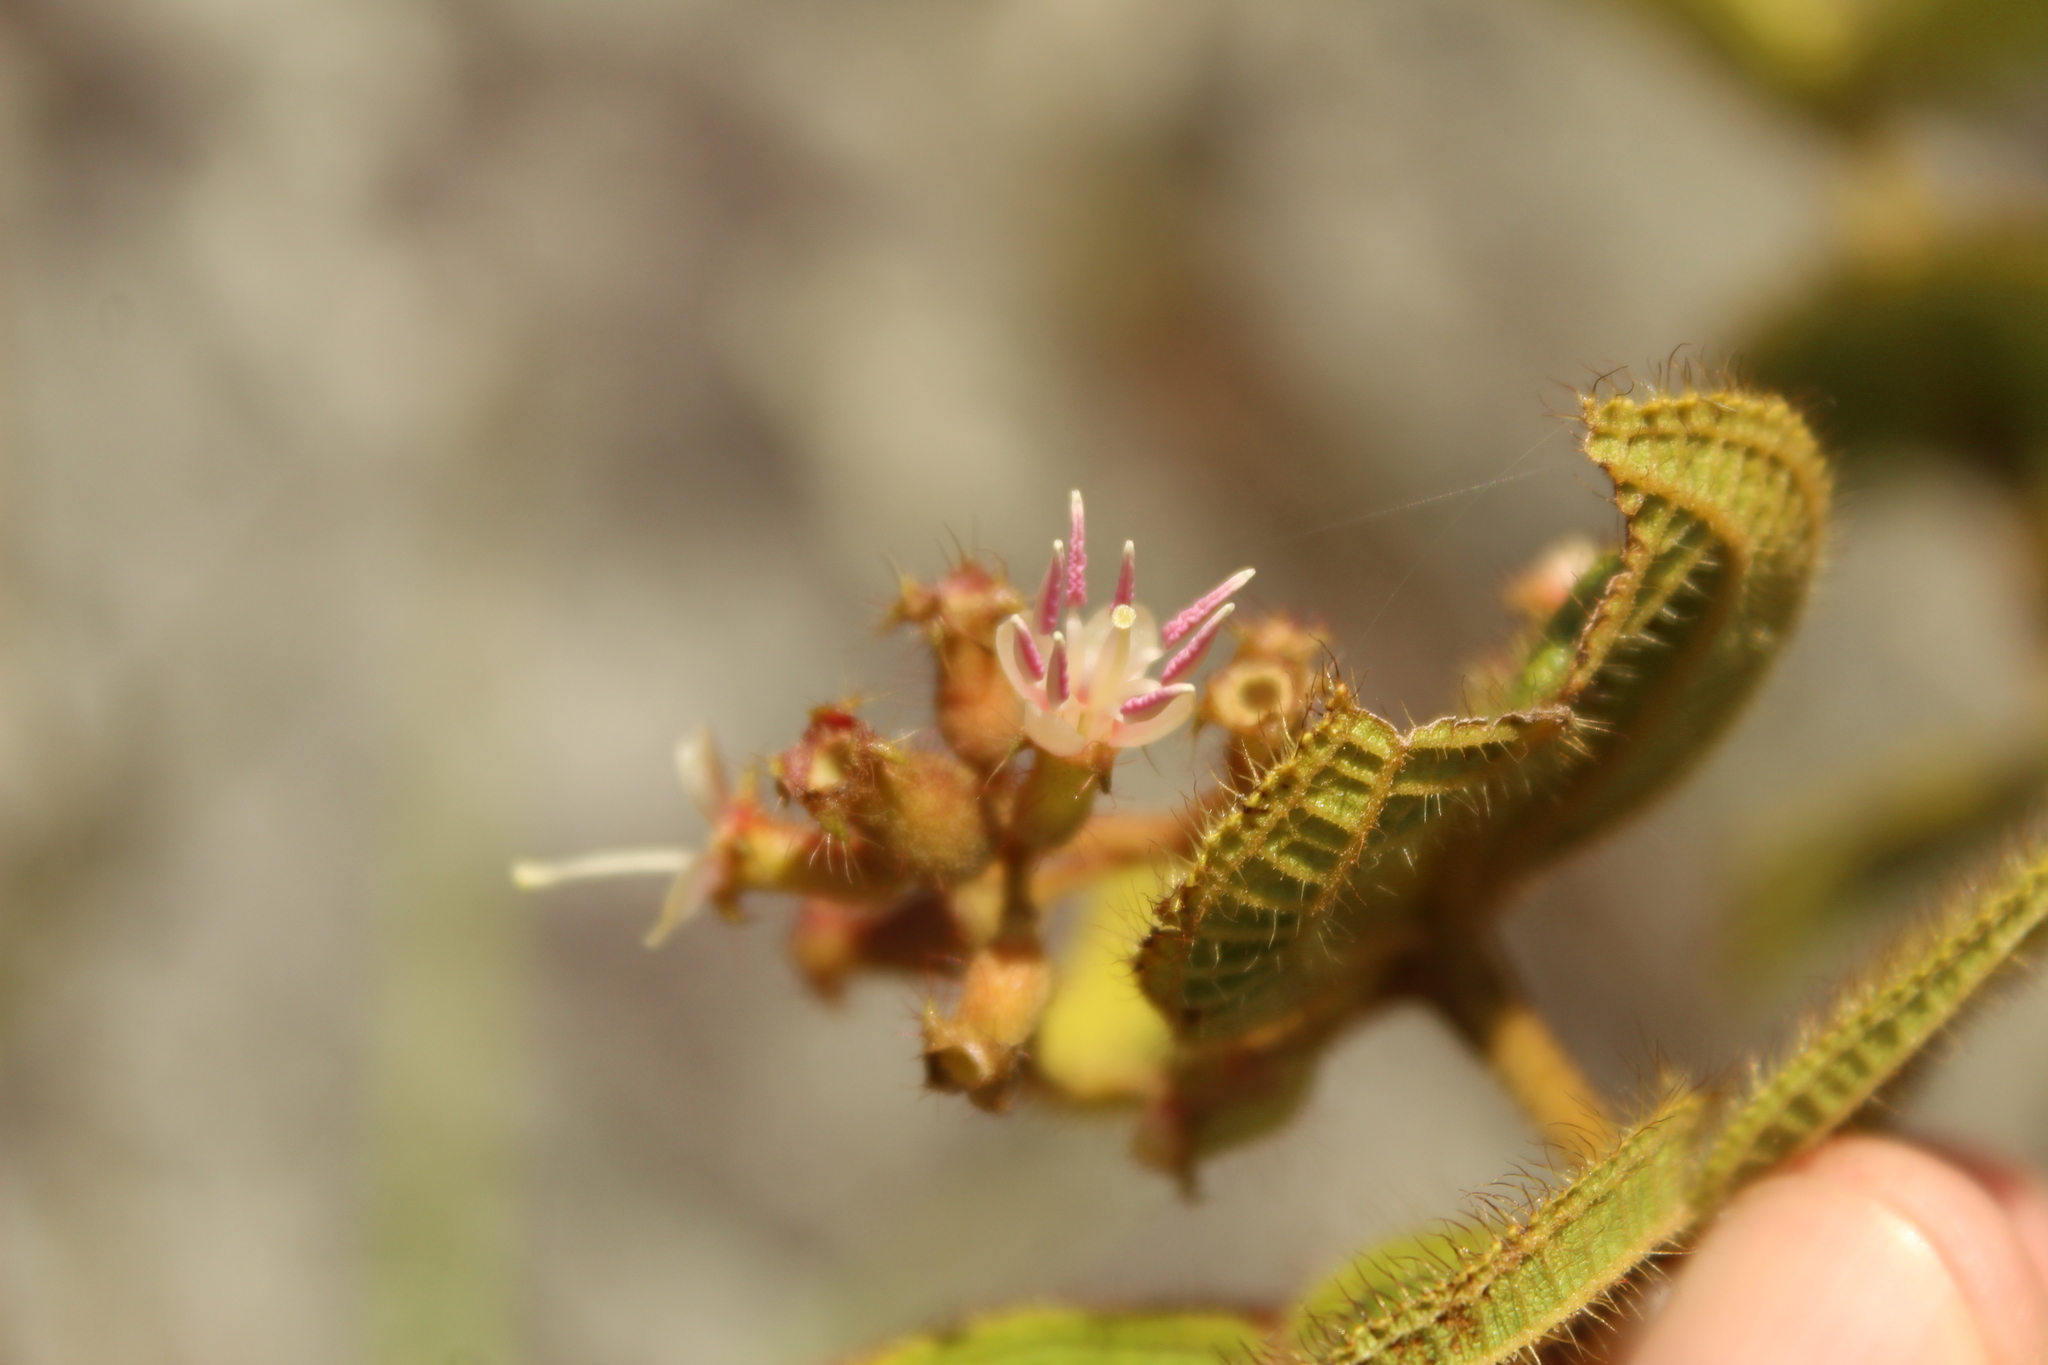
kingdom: Plantae
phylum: Tracheophyta
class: Magnoliopsida
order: Myrtales
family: Melastomataceae
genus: Miconia
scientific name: Miconia domociliata
